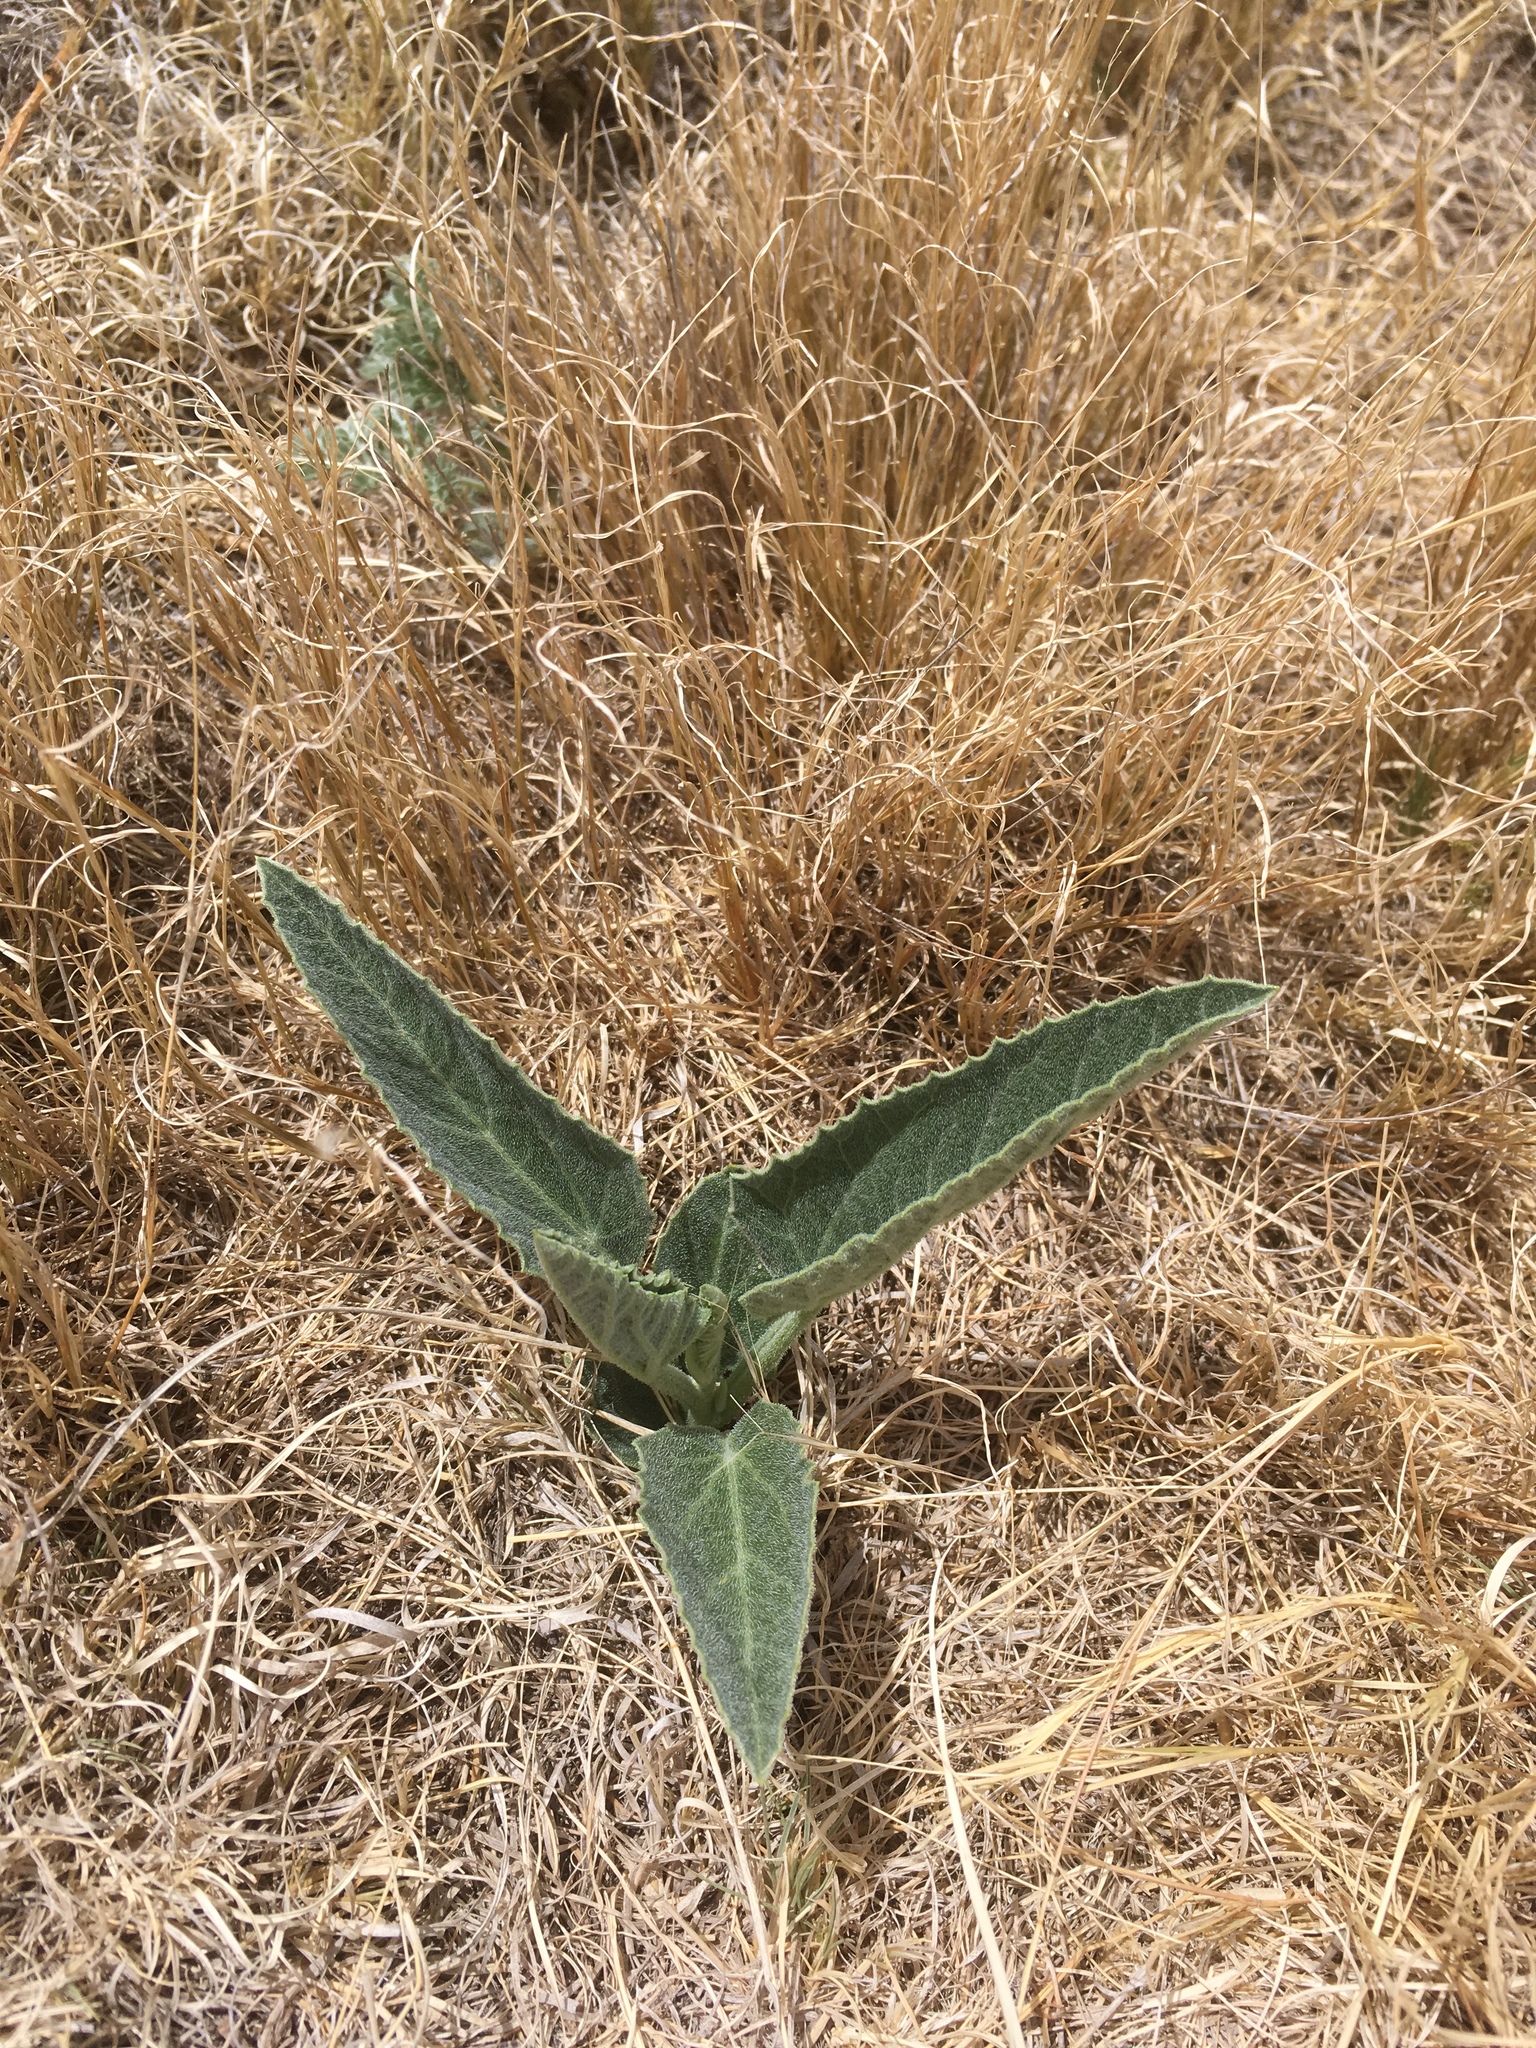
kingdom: Plantae
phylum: Tracheophyta
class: Magnoliopsida
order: Cucurbitales
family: Cucurbitaceae
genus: Cucurbita
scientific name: Cucurbita foetidissima
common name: Buffalo gourd
